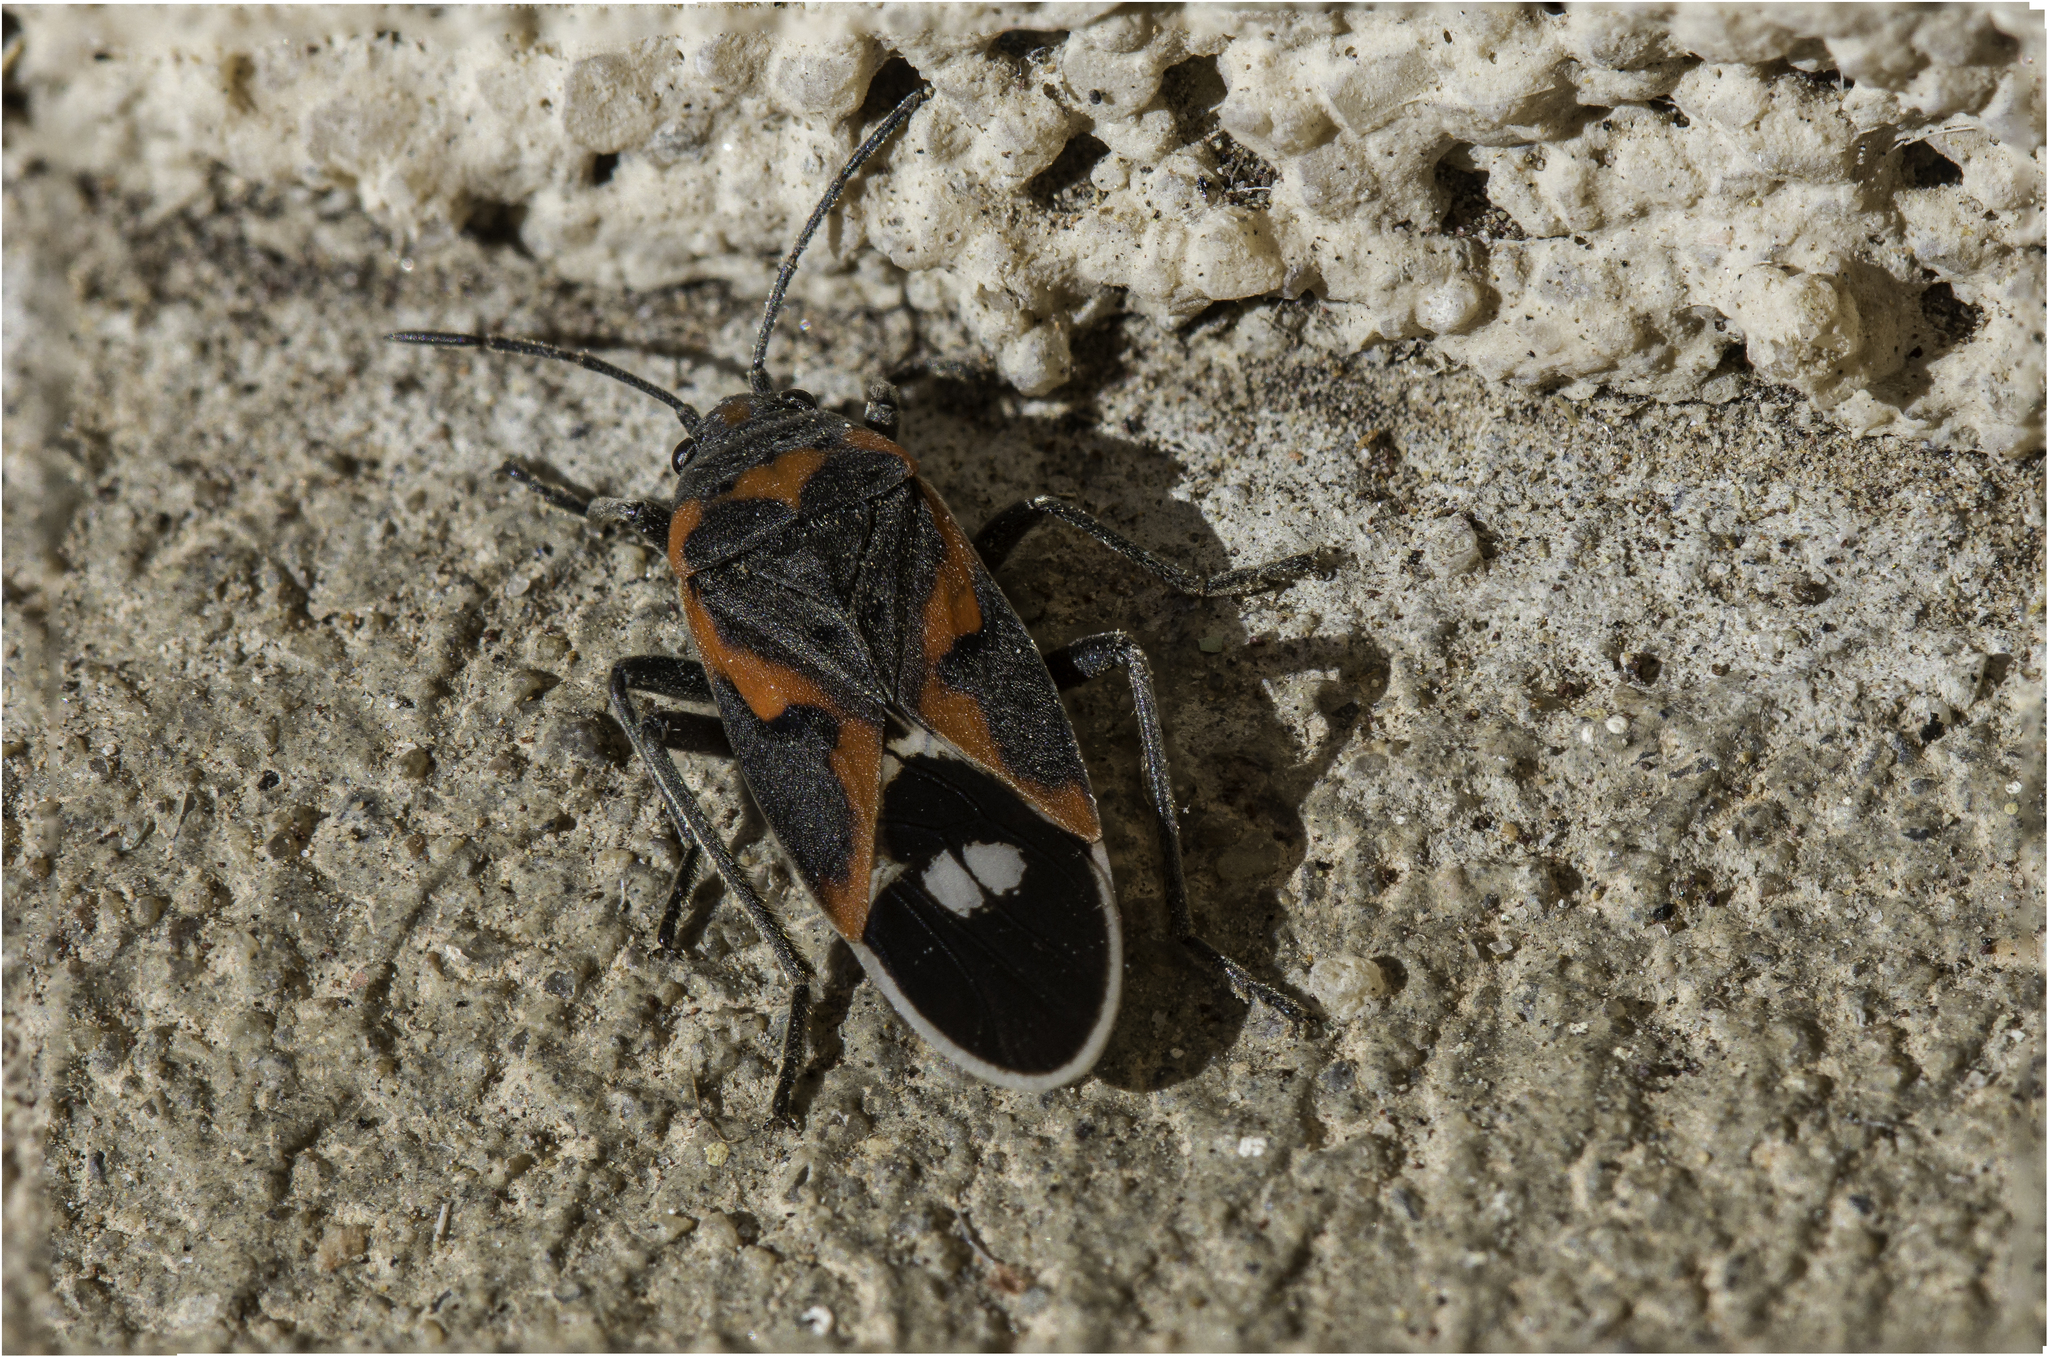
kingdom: Animalia
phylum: Arthropoda
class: Insecta
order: Hemiptera
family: Lygaeidae
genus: Lygaeus
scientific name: Lygaeus kalmii
